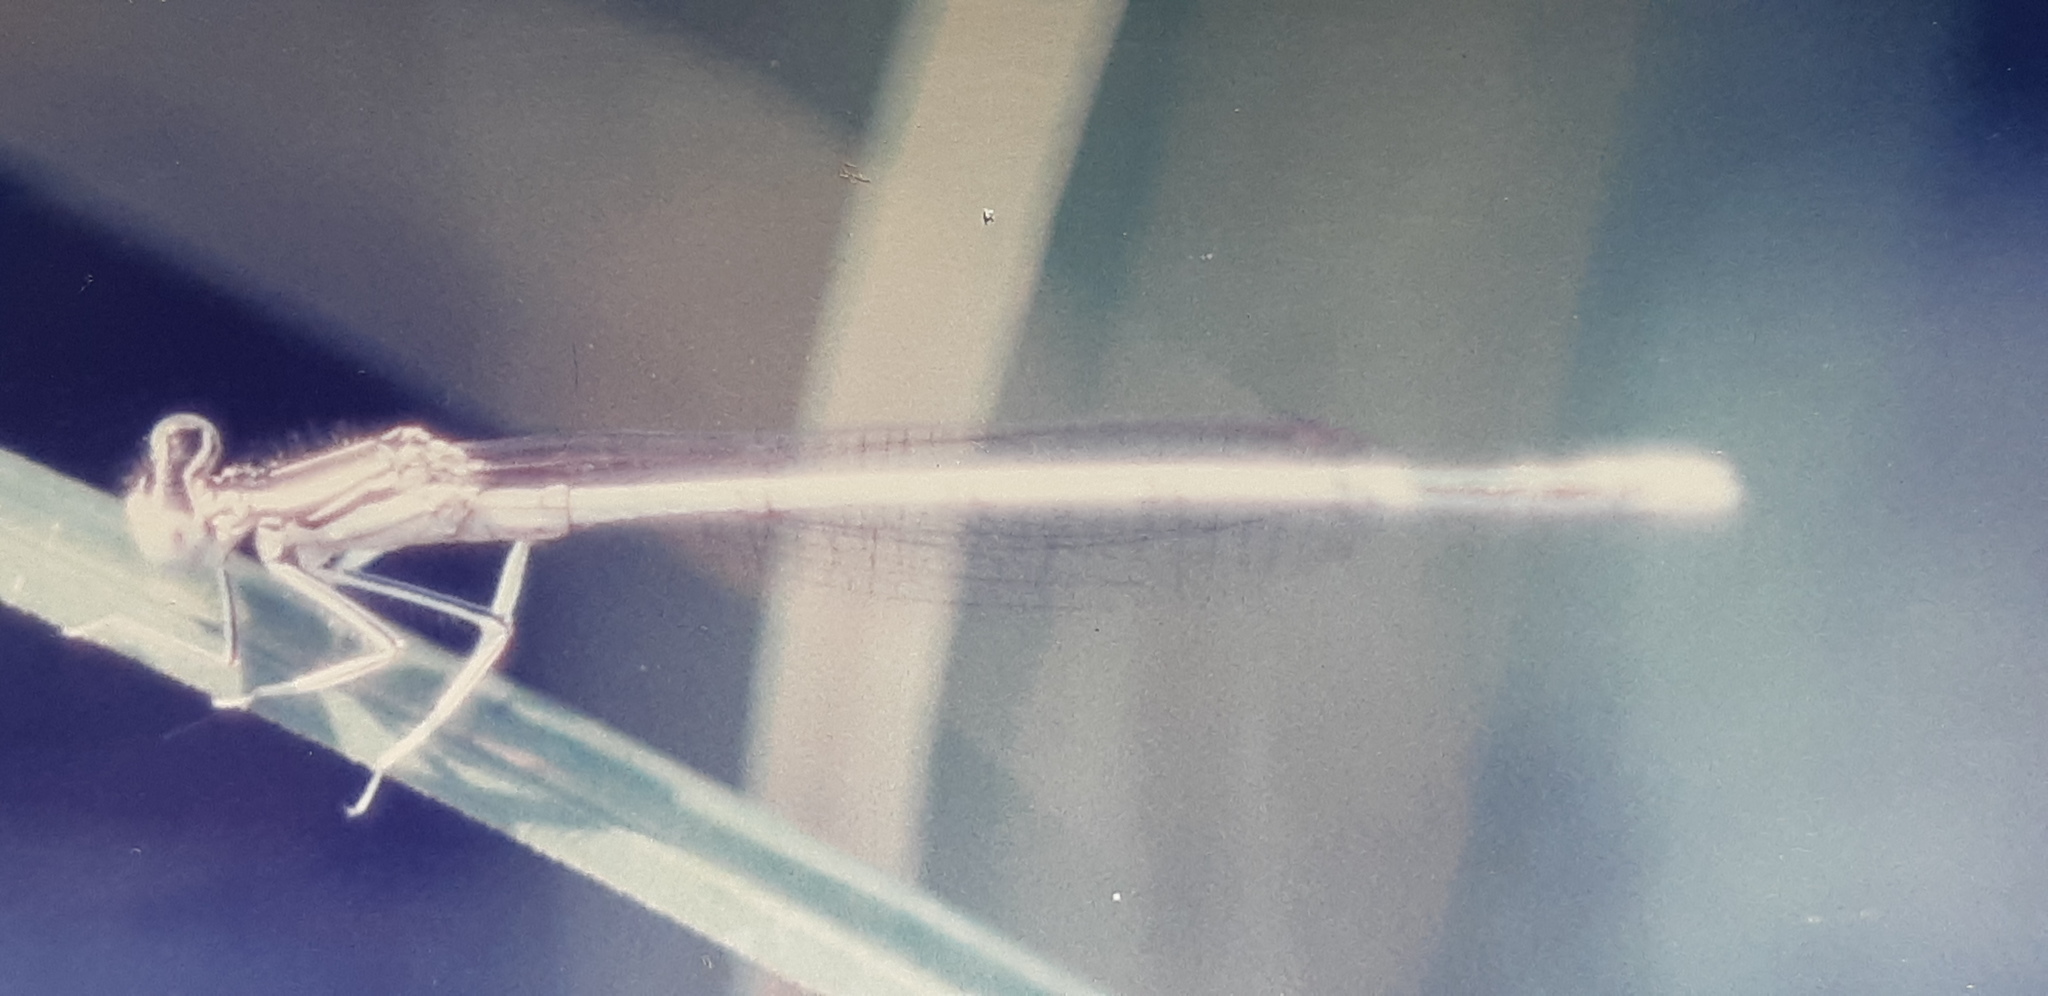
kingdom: Animalia
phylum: Arthropoda
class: Insecta
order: Odonata
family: Platycnemididae
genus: Platycnemis
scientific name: Platycnemis pennipes
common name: White-legged damselfly
